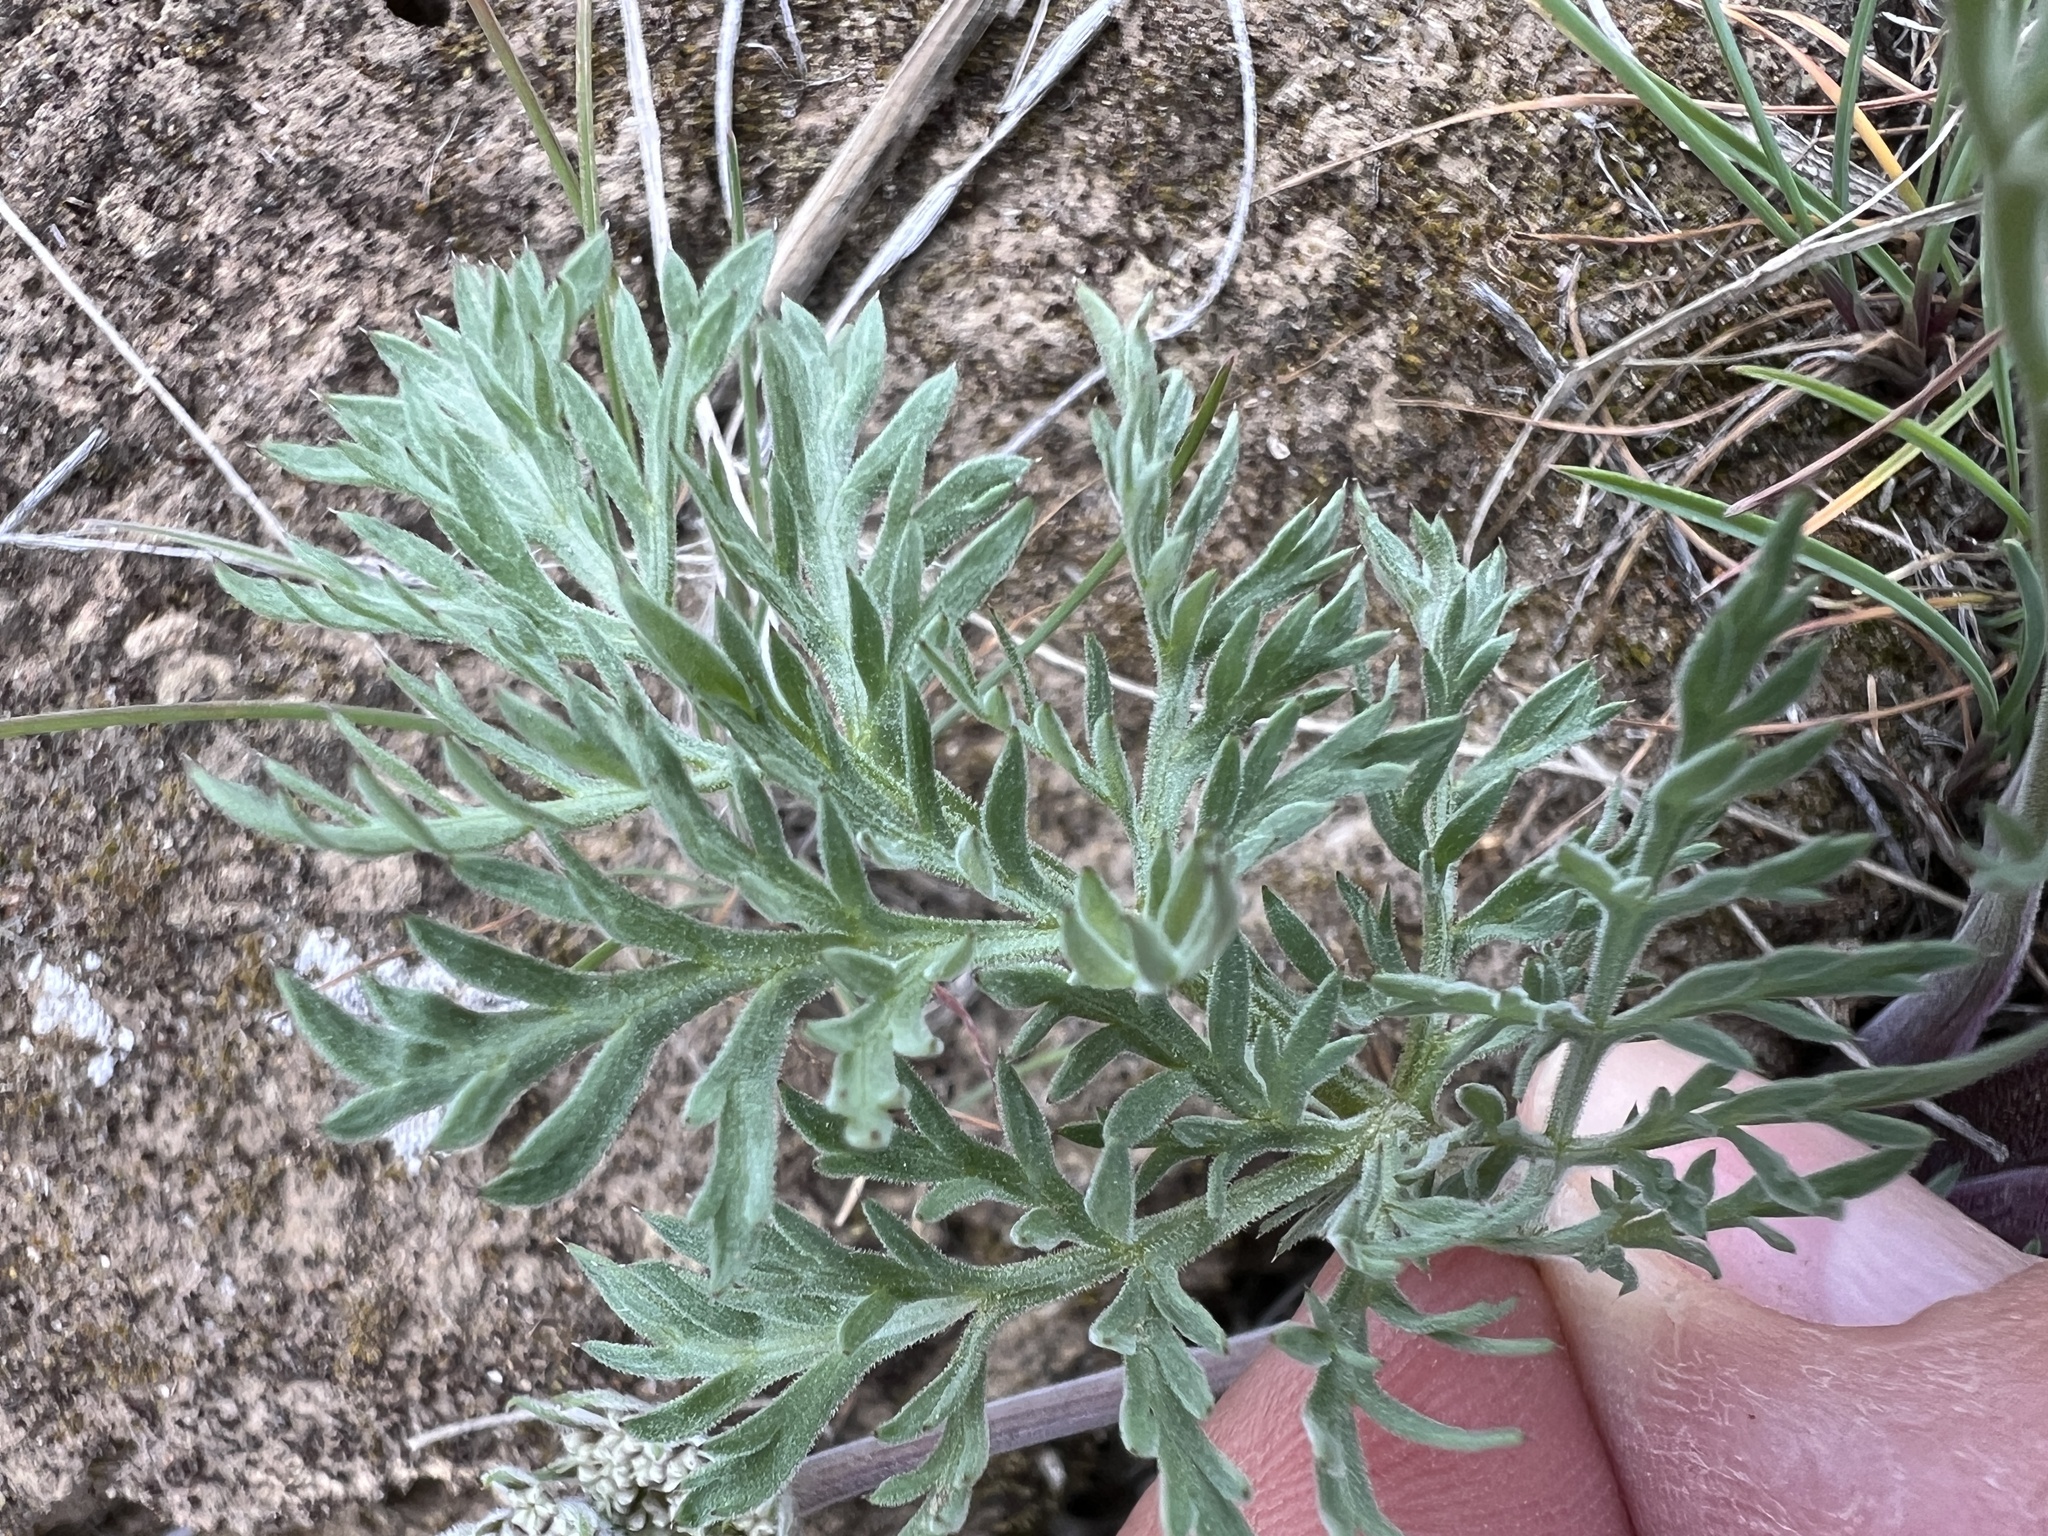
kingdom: Plantae
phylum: Tracheophyta
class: Magnoliopsida
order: Apiales
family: Apiaceae
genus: Lomatium
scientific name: Lomatium macrocarpum
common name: Big-seed biscuitroot
